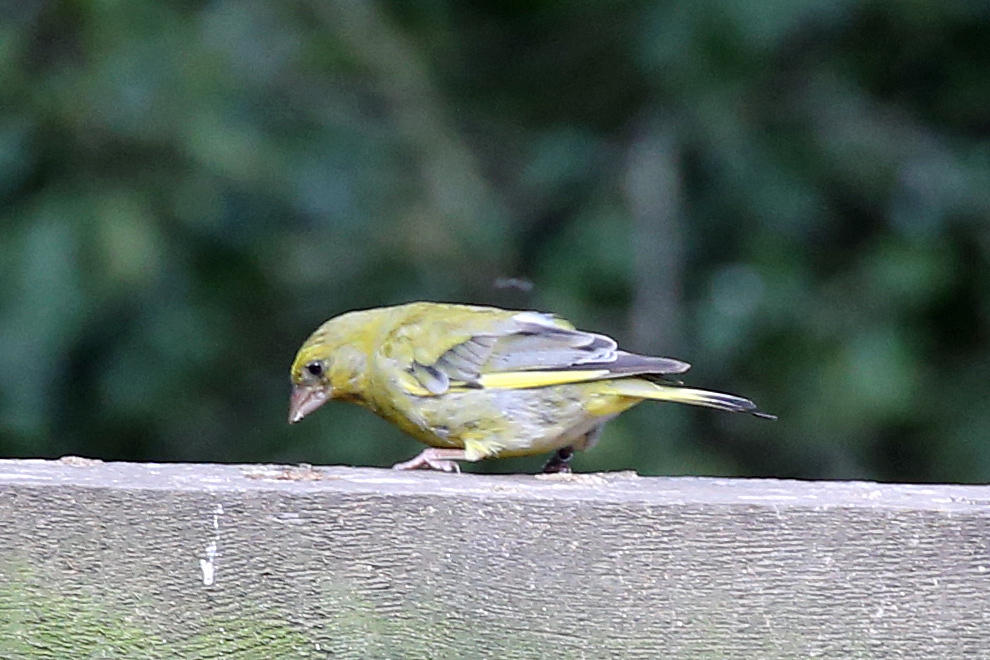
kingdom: Plantae
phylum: Tracheophyta
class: Liliopsida
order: Poales
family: Poaceae
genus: Chloris
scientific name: Chloris chloris
